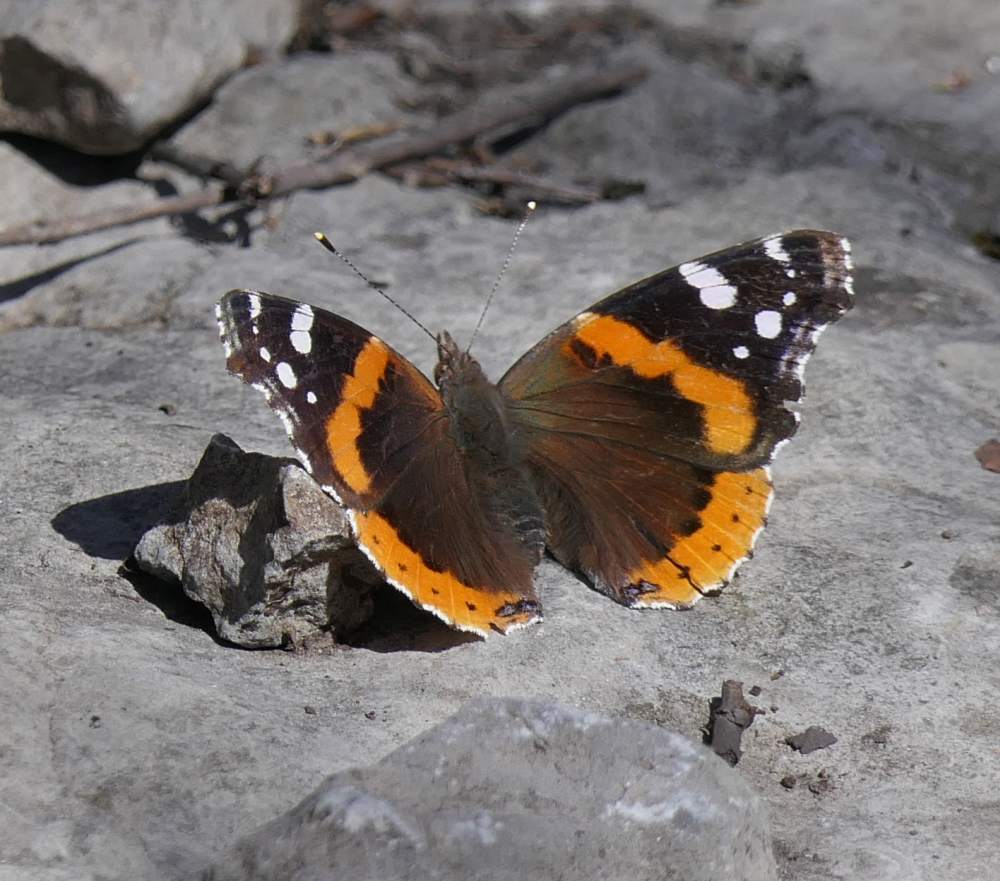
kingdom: Animalia
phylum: Arthropoda
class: Insecta
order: Lepidoptera
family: Nymphalidae
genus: Vanessa
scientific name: Vanessa atalanta
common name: Red admiral
